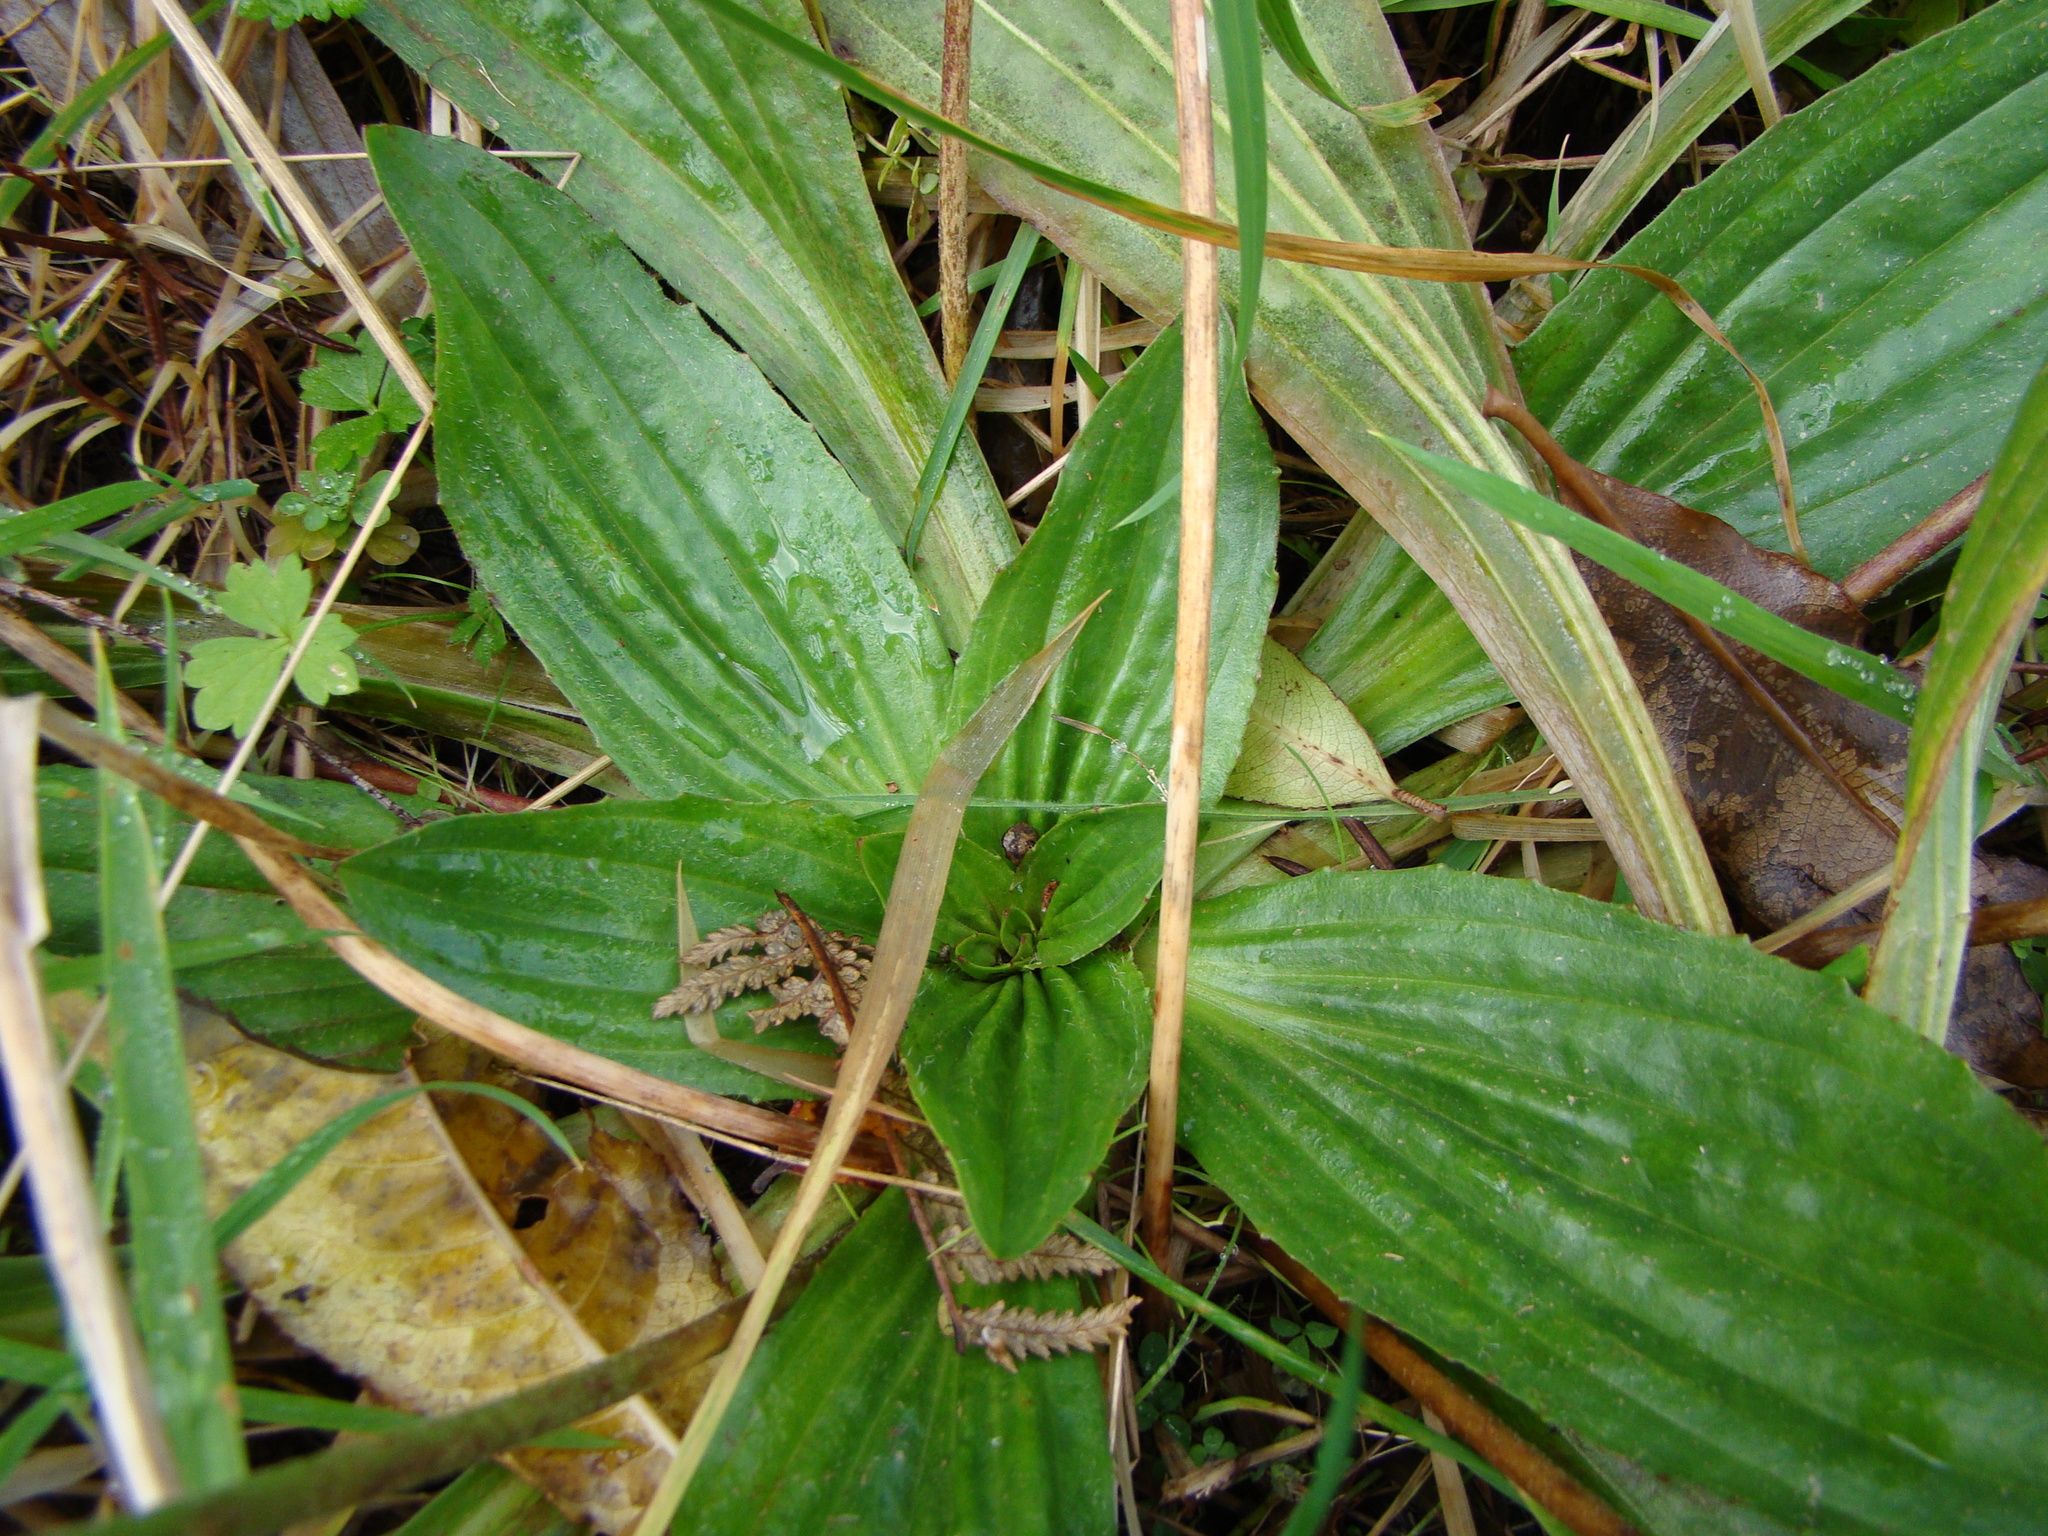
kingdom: Plantae
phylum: Tracheophyta
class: Magnoliopsida
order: Lamiales
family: Plantaginaceae
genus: Plantago
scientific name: Plantago australis
